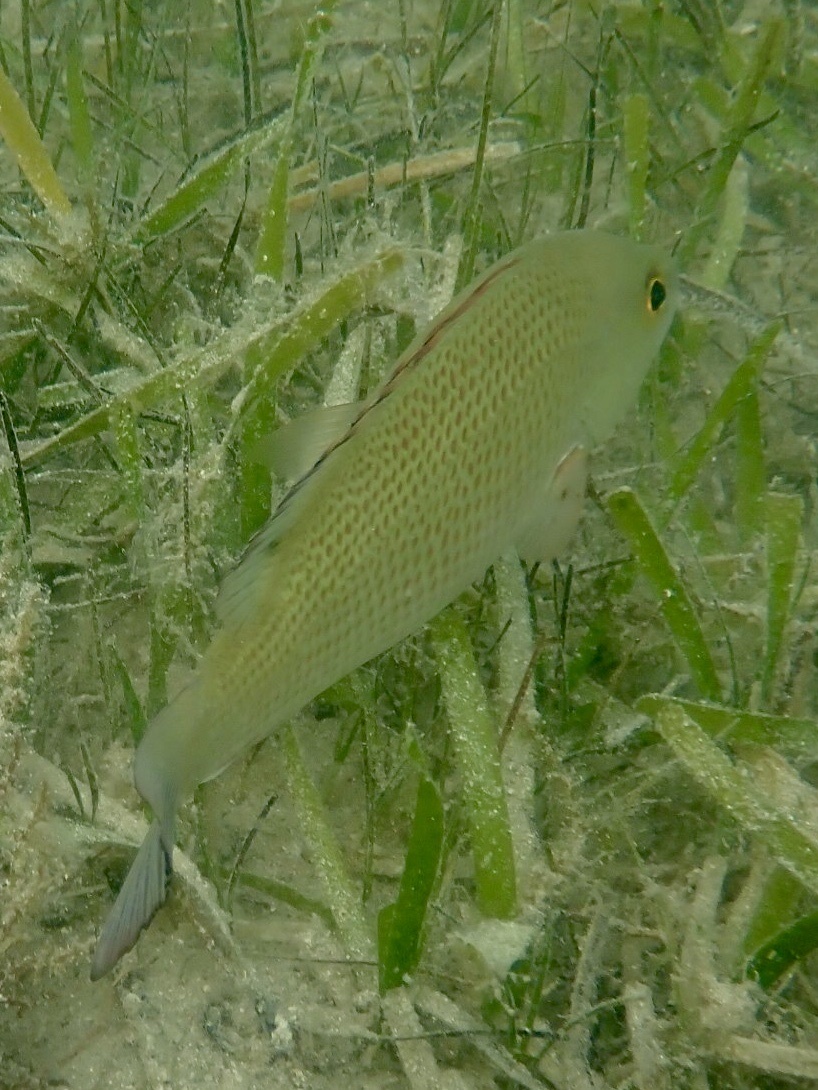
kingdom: Animalia
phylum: Chordata
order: Perciformes
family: Lutjanidae
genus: Lutjanus
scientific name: Lutjanus griseus
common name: Gray snapper
